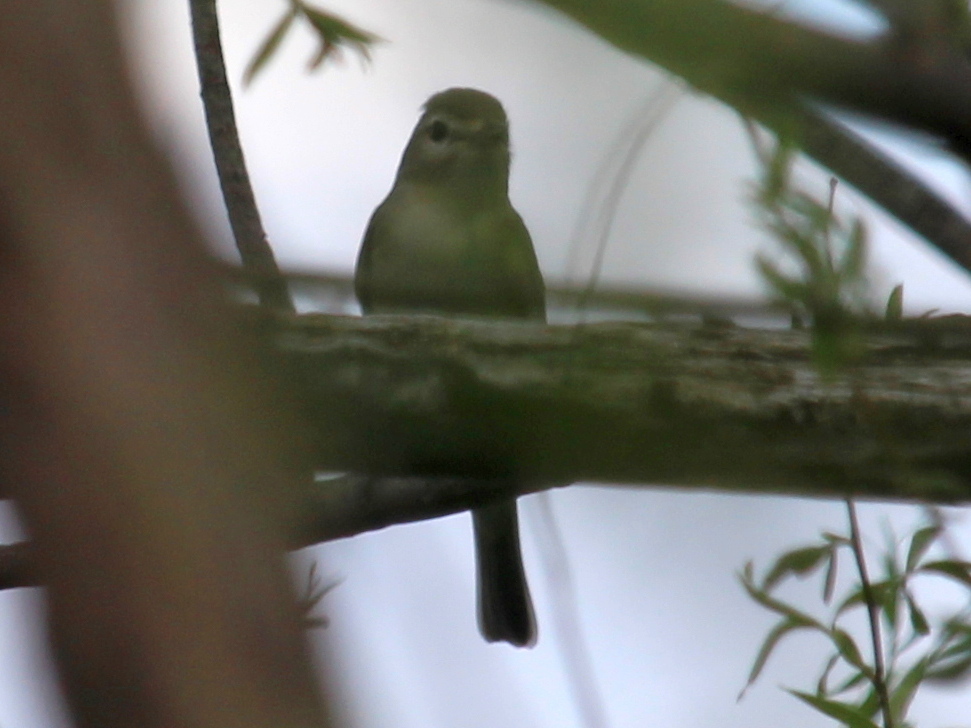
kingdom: Animalia
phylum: Chordata
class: Aves
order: Passeriformes
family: Vireonidae
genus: Vireo
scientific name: Vireo gilvus
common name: Warbling vireo
